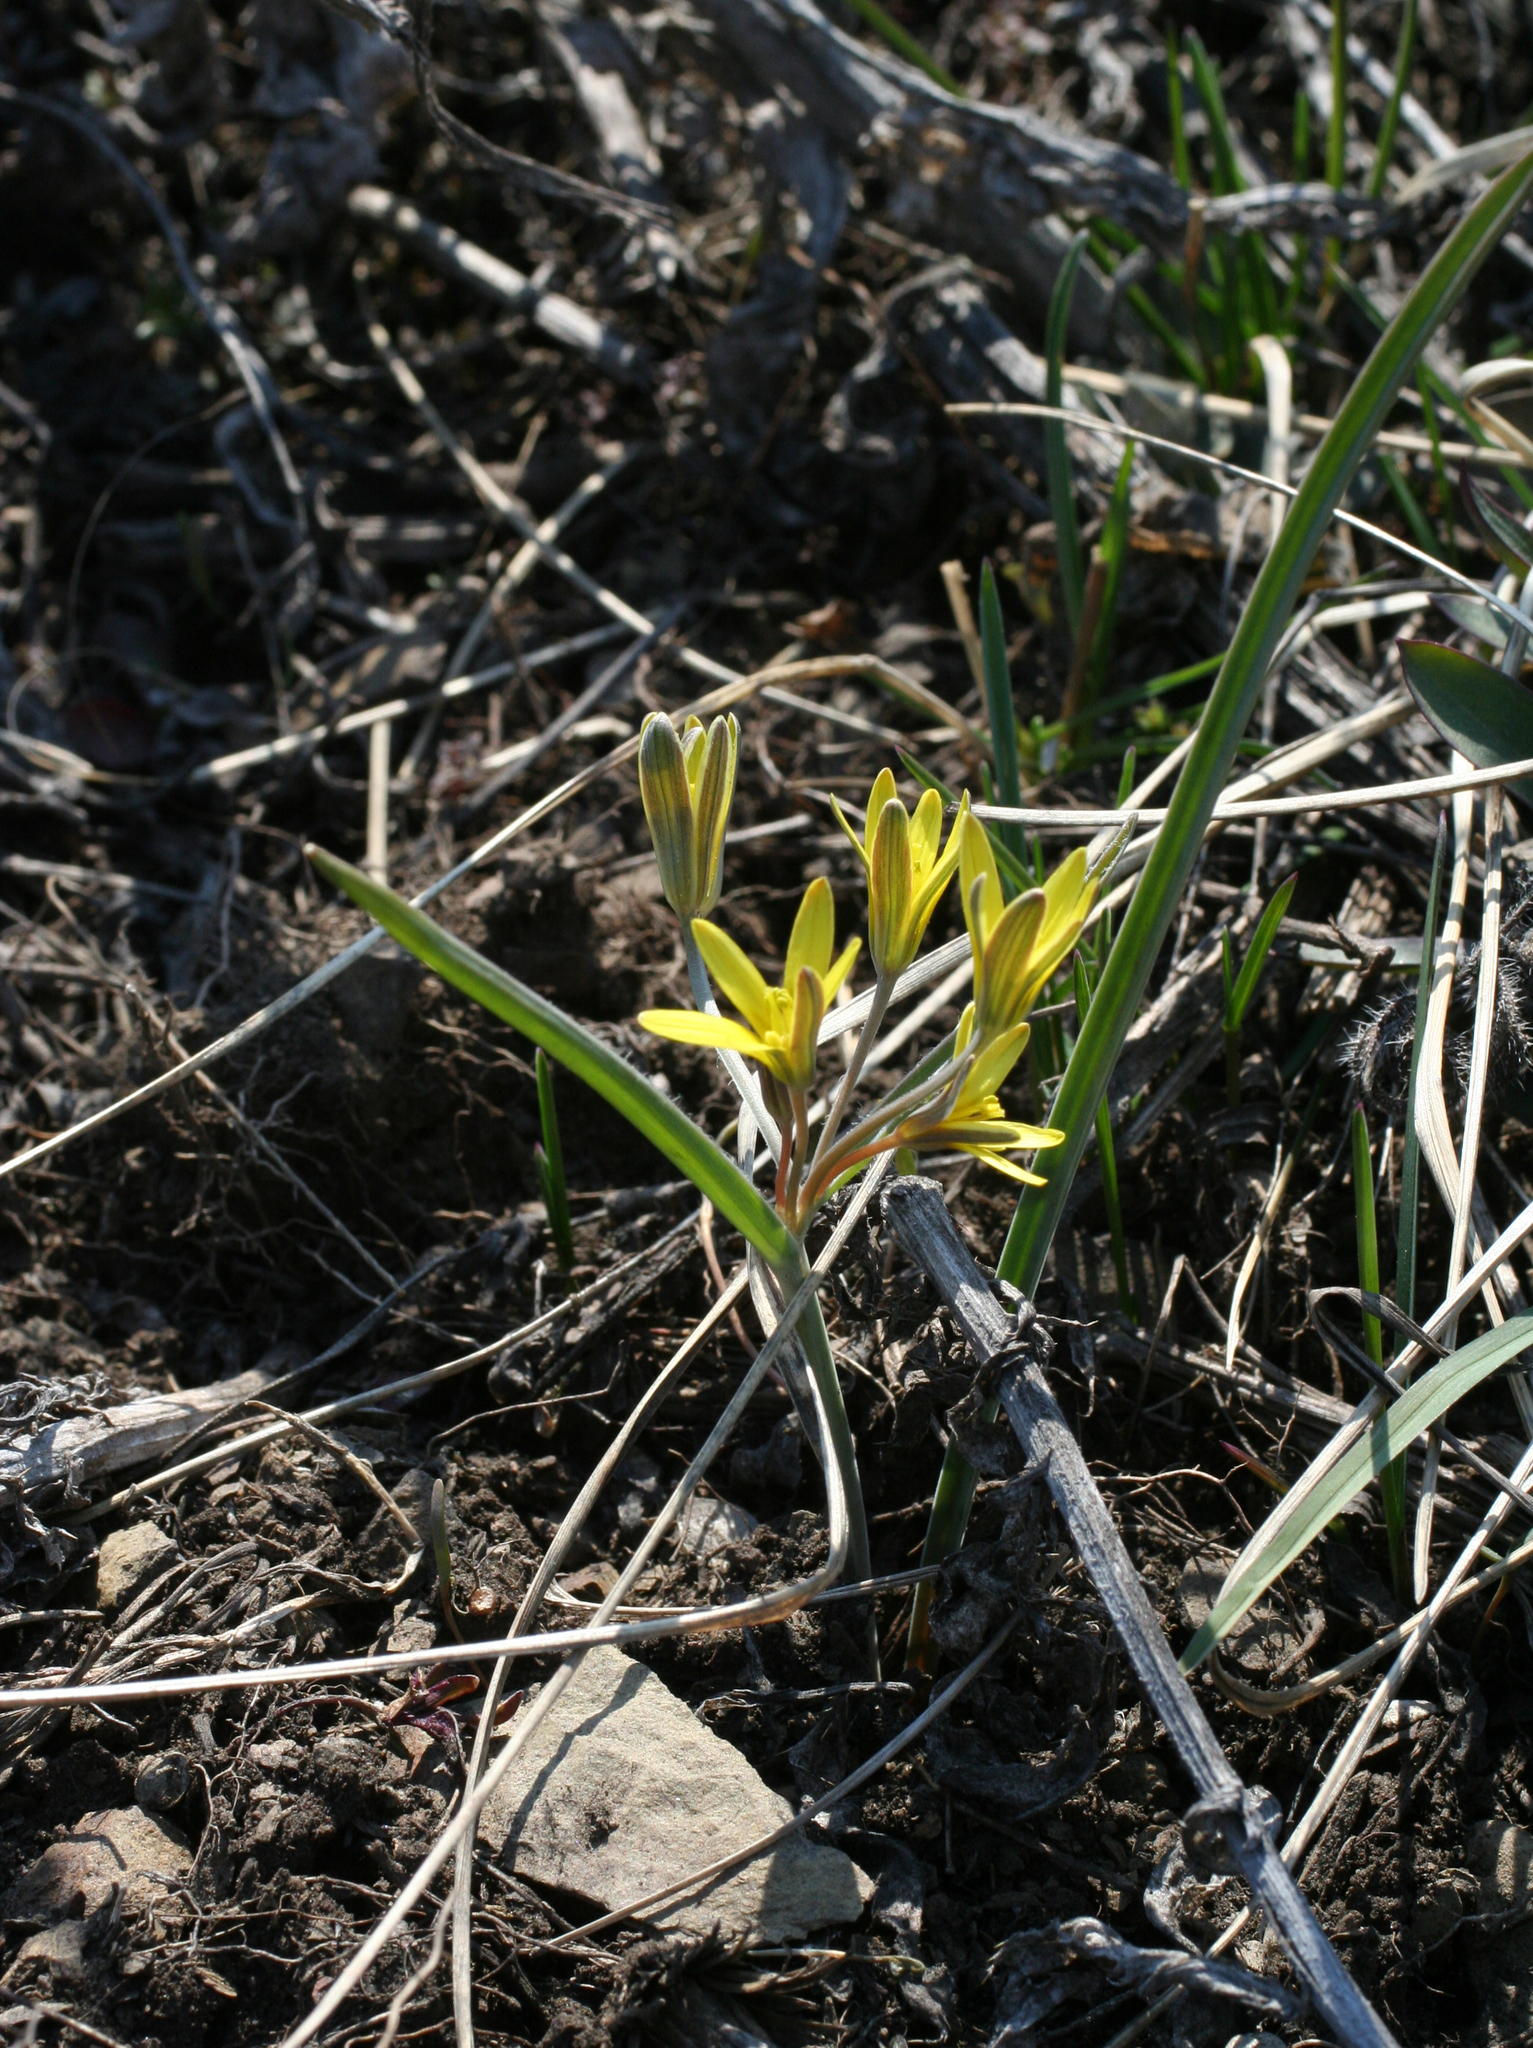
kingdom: Plantae
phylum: Tracheophyta
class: Liliopsida
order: Liliales
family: Liliaceae
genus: Gagea
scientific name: Gagea fedtschenkoana
